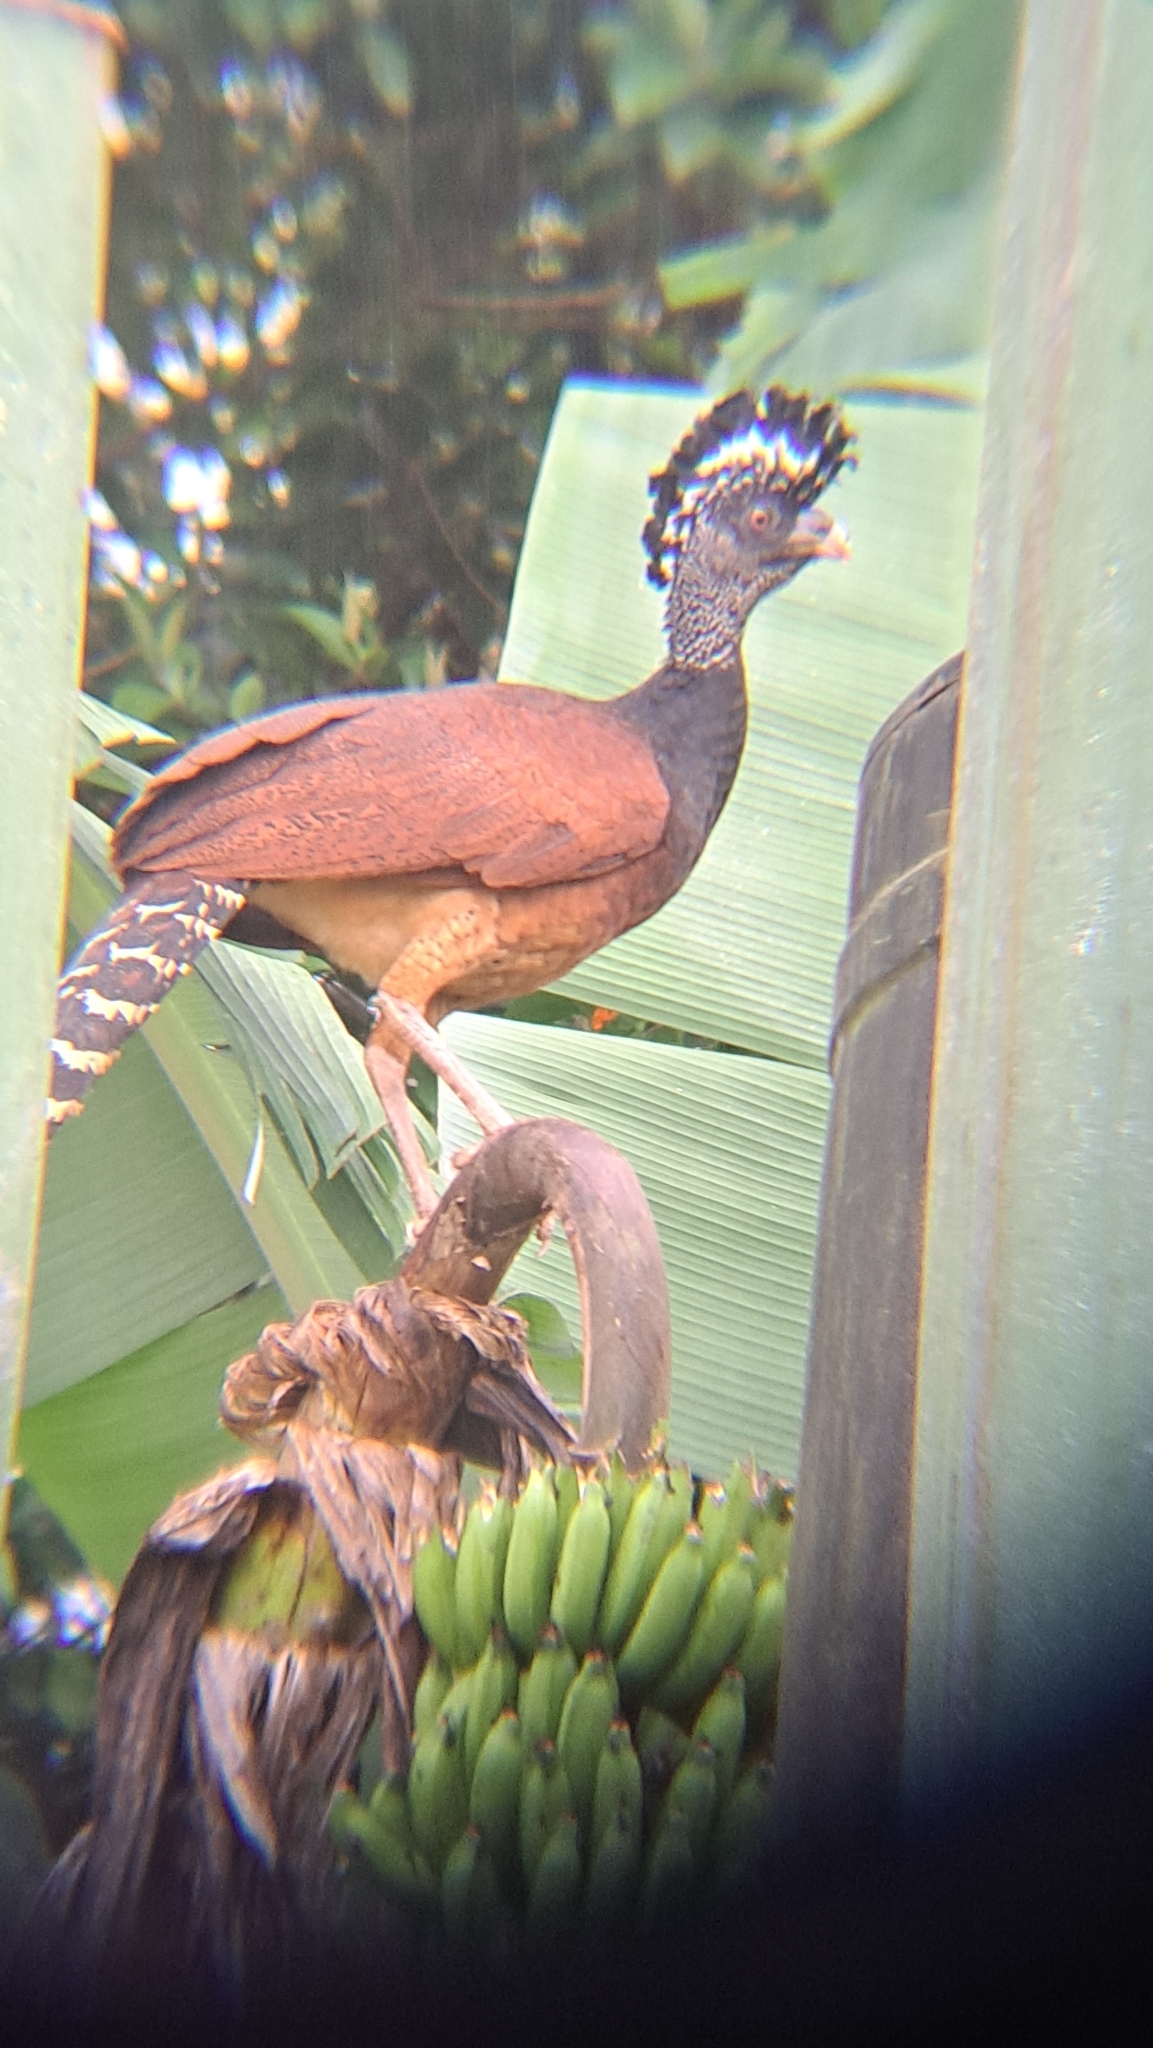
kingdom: Animalia
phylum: Chordata
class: Aves
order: Galliformes
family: Cracidae
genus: Crax
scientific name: Crax rubra
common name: Great curassow
